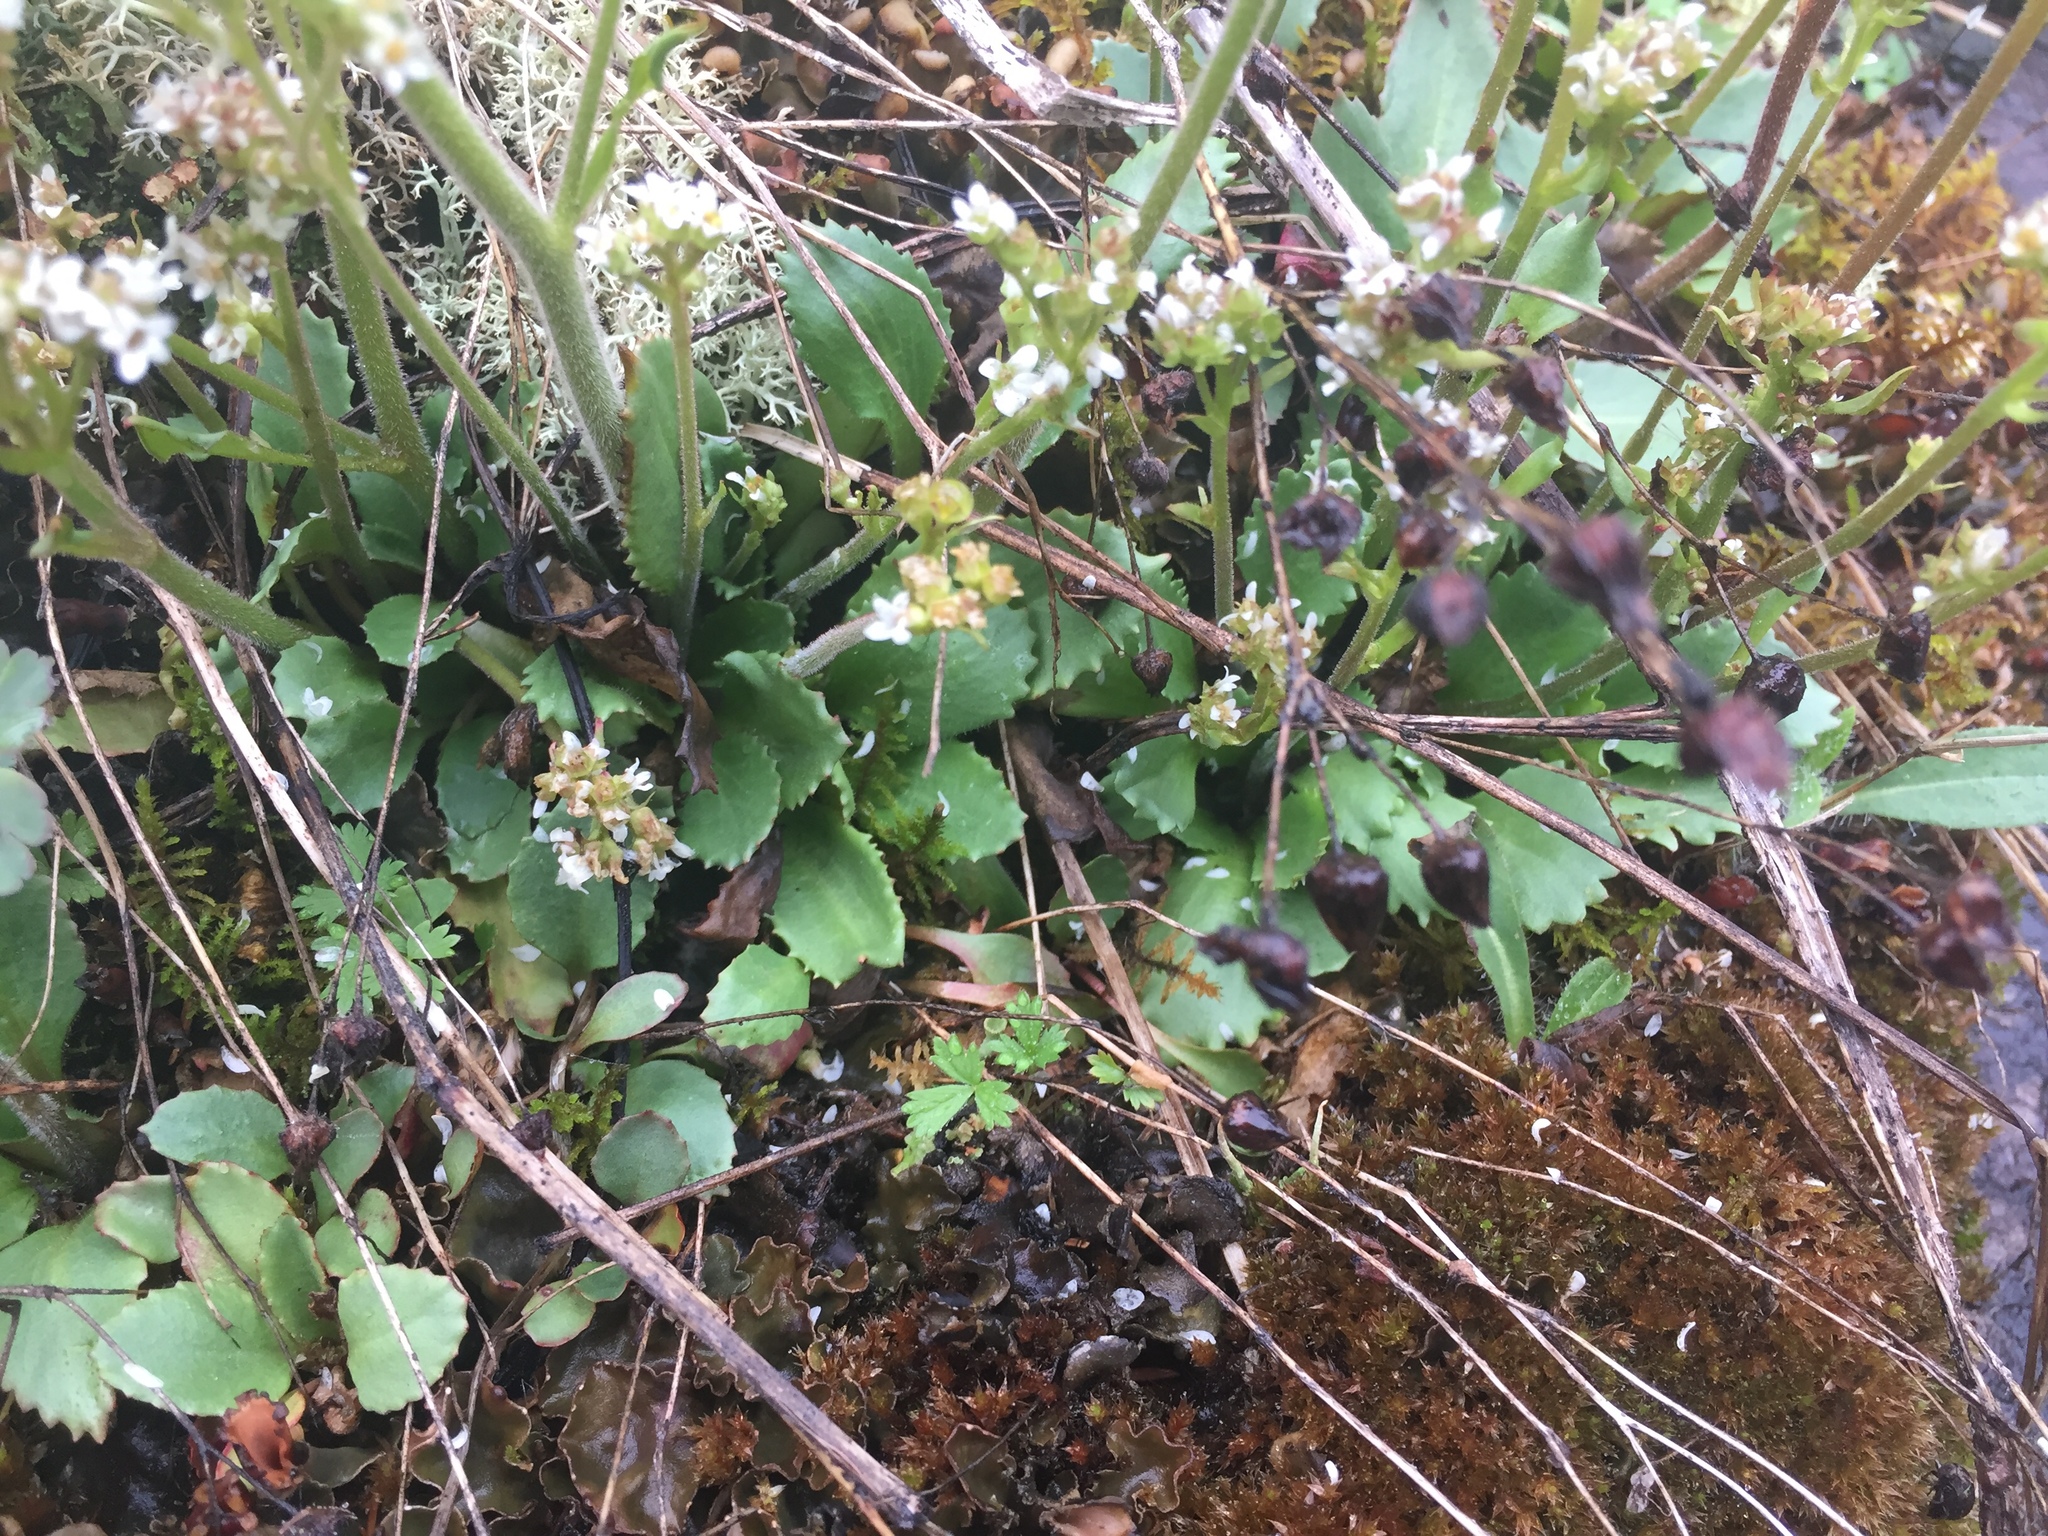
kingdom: Plantae
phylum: Tracheophyta
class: Magnoliopsida
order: Saxifragales
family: Saxifragaceae
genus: Micranthes
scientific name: Micranthes virginiensis
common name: Early saxifrage
